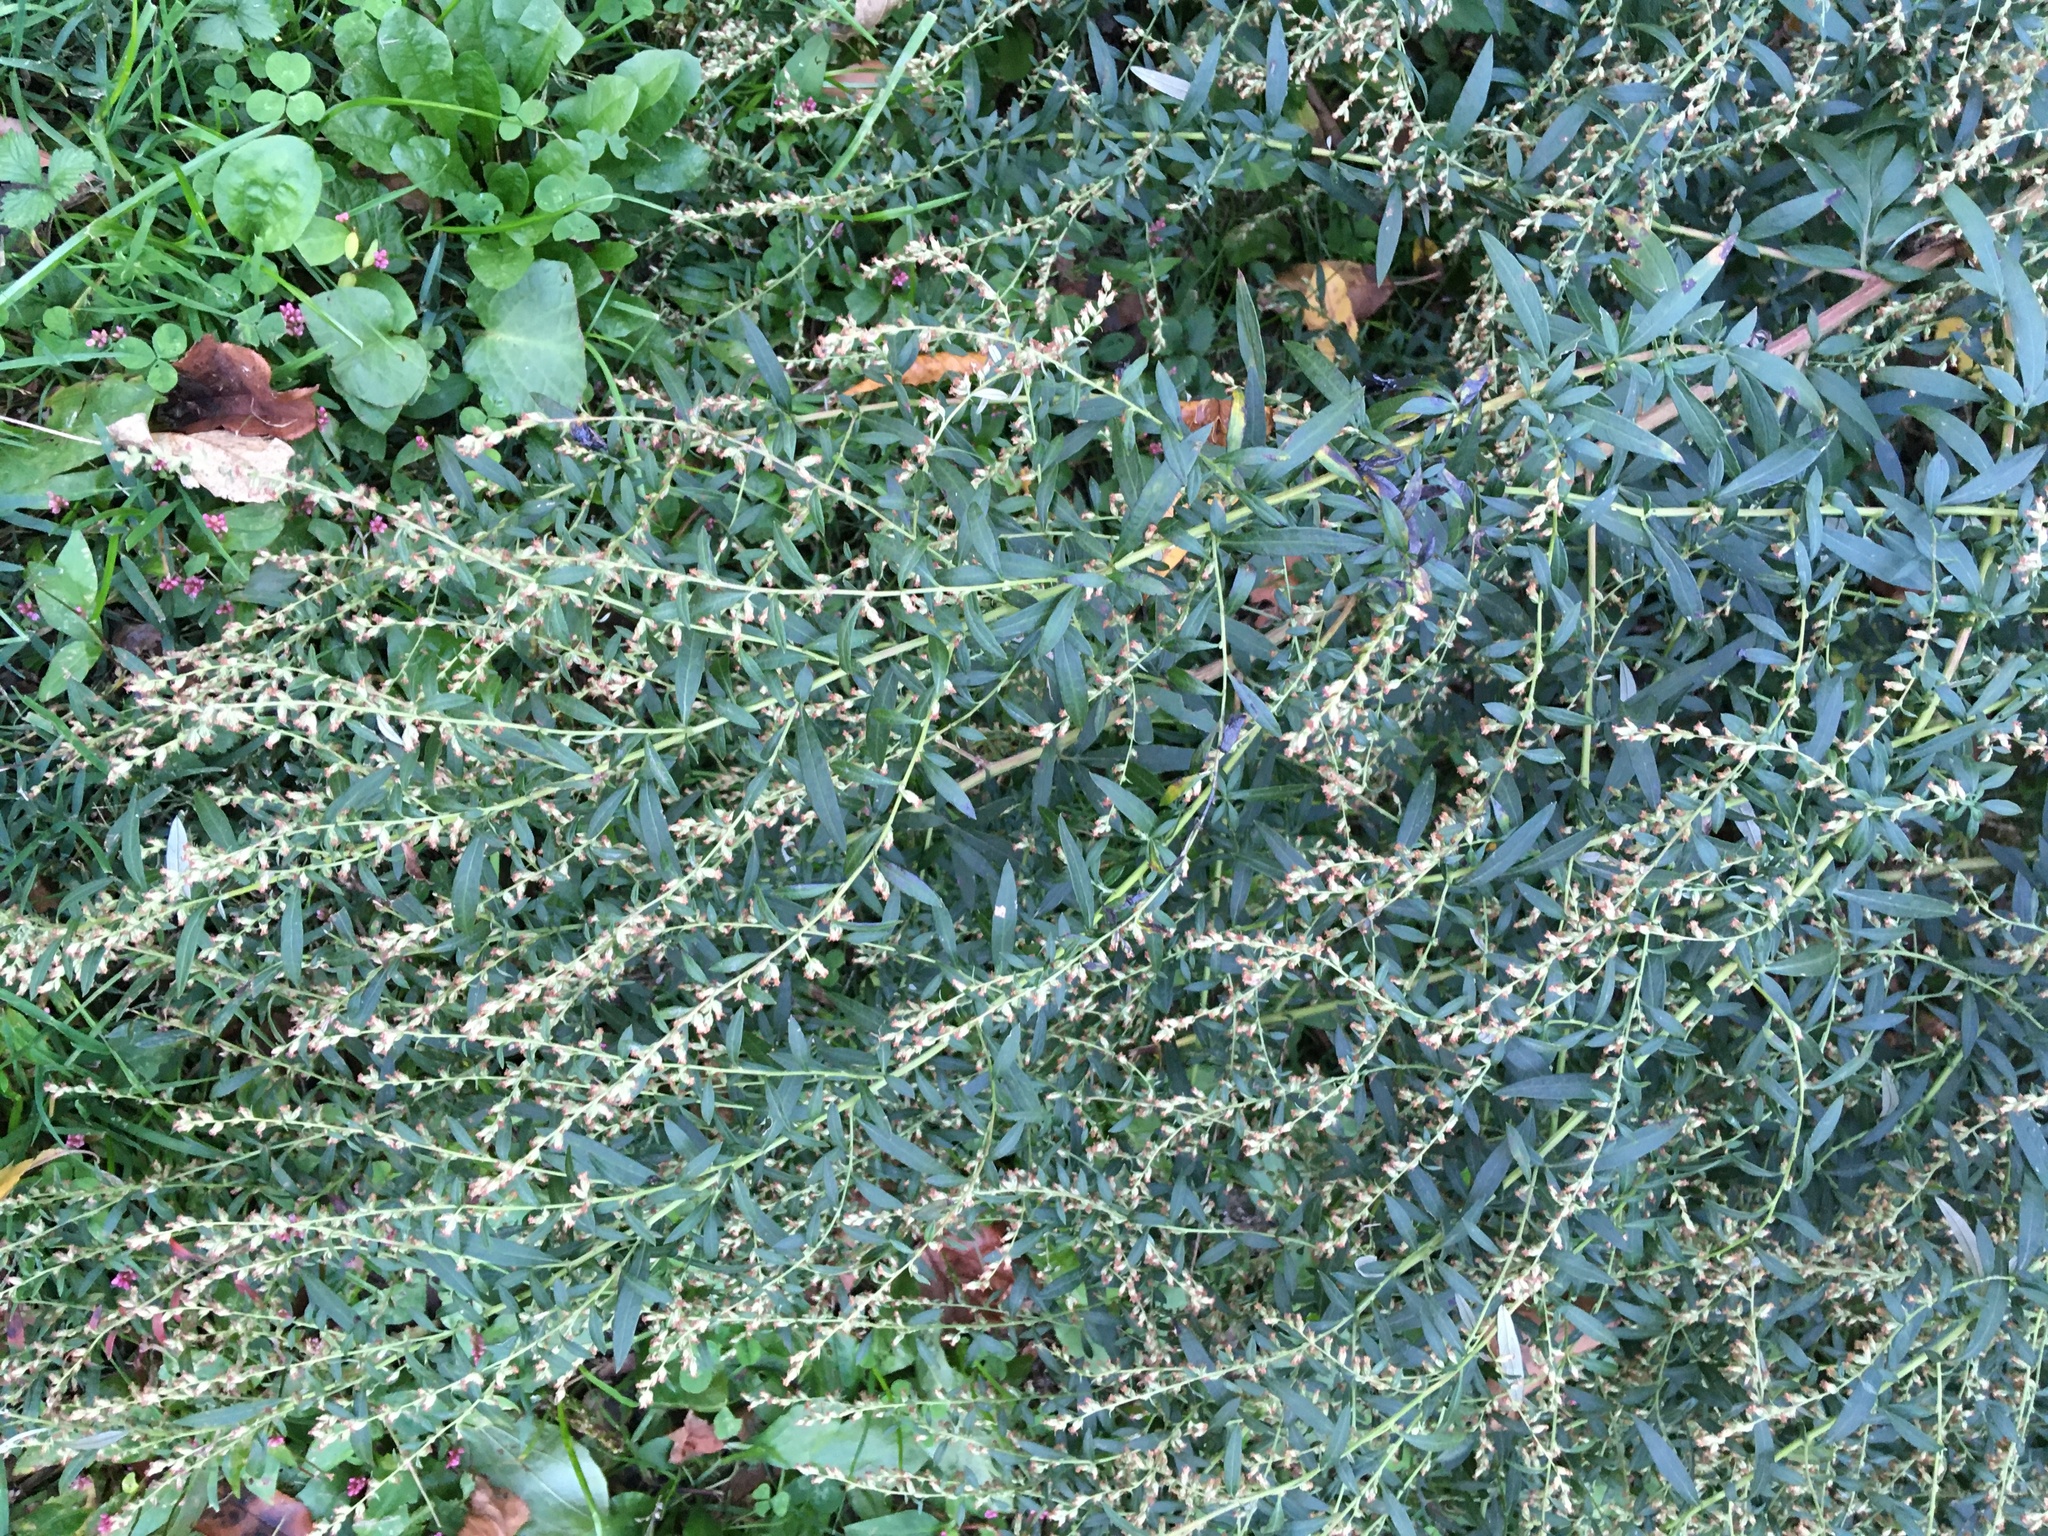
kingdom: Plantae
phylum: Tracheophyta
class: Magnoliopsida
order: Asterales
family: Asteraceae
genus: Artemisia
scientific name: Artemisia vulgaris
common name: Mugwort
